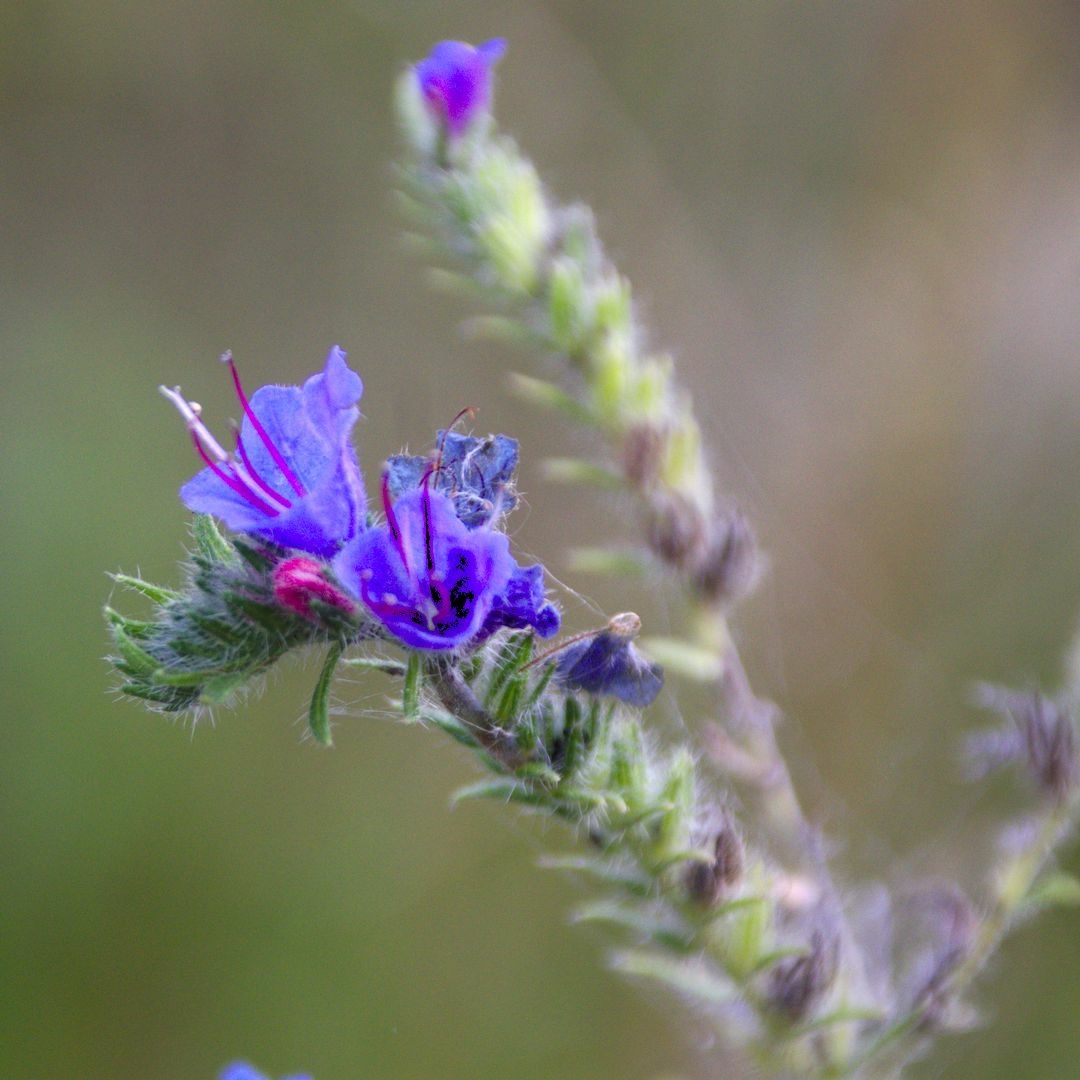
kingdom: Plantae
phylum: Tracheophyta
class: Magnoliopsida
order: Boraginales
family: Boraginaceae
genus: Echium
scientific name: Echium vulgare
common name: Common viper's bugloss
